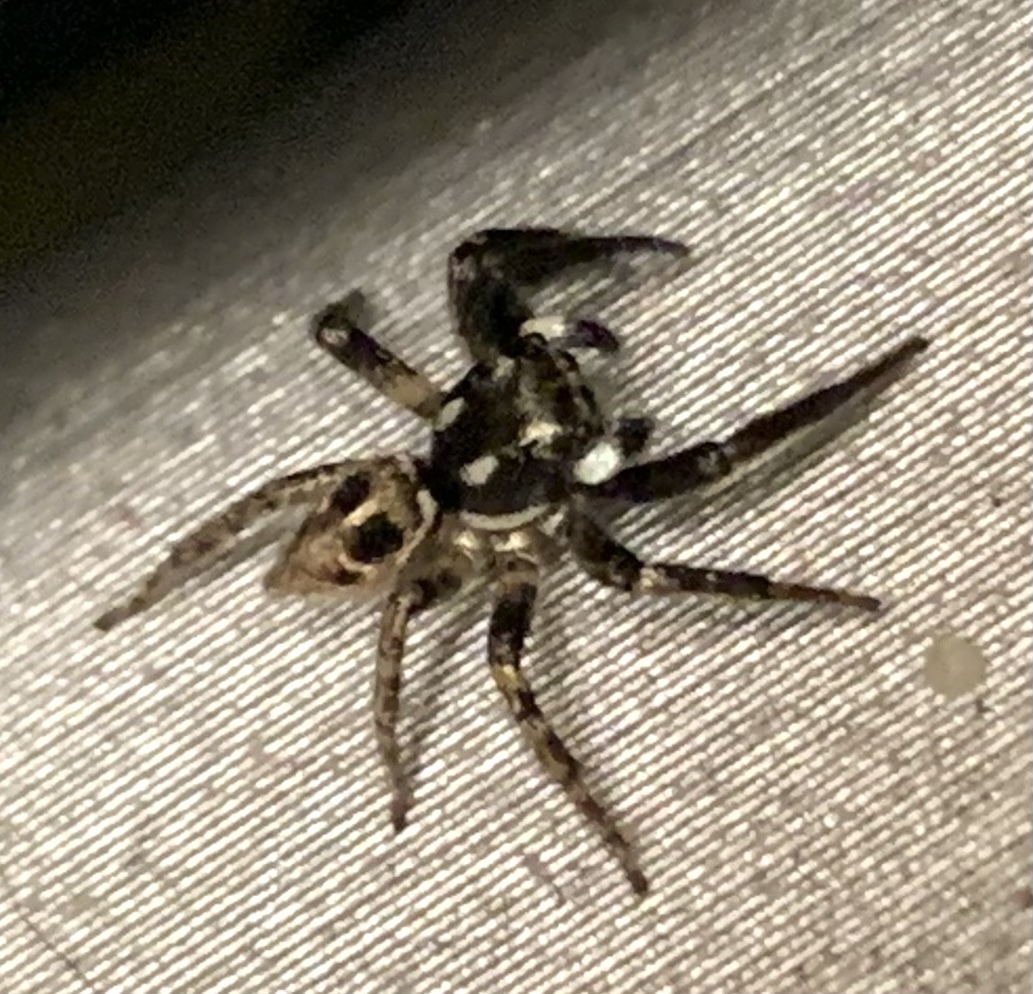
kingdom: Animalia
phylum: Arthropoda
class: Arachnida
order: Araneae
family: Salticidae
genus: Anasaitis
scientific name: Anasaitis canosa
